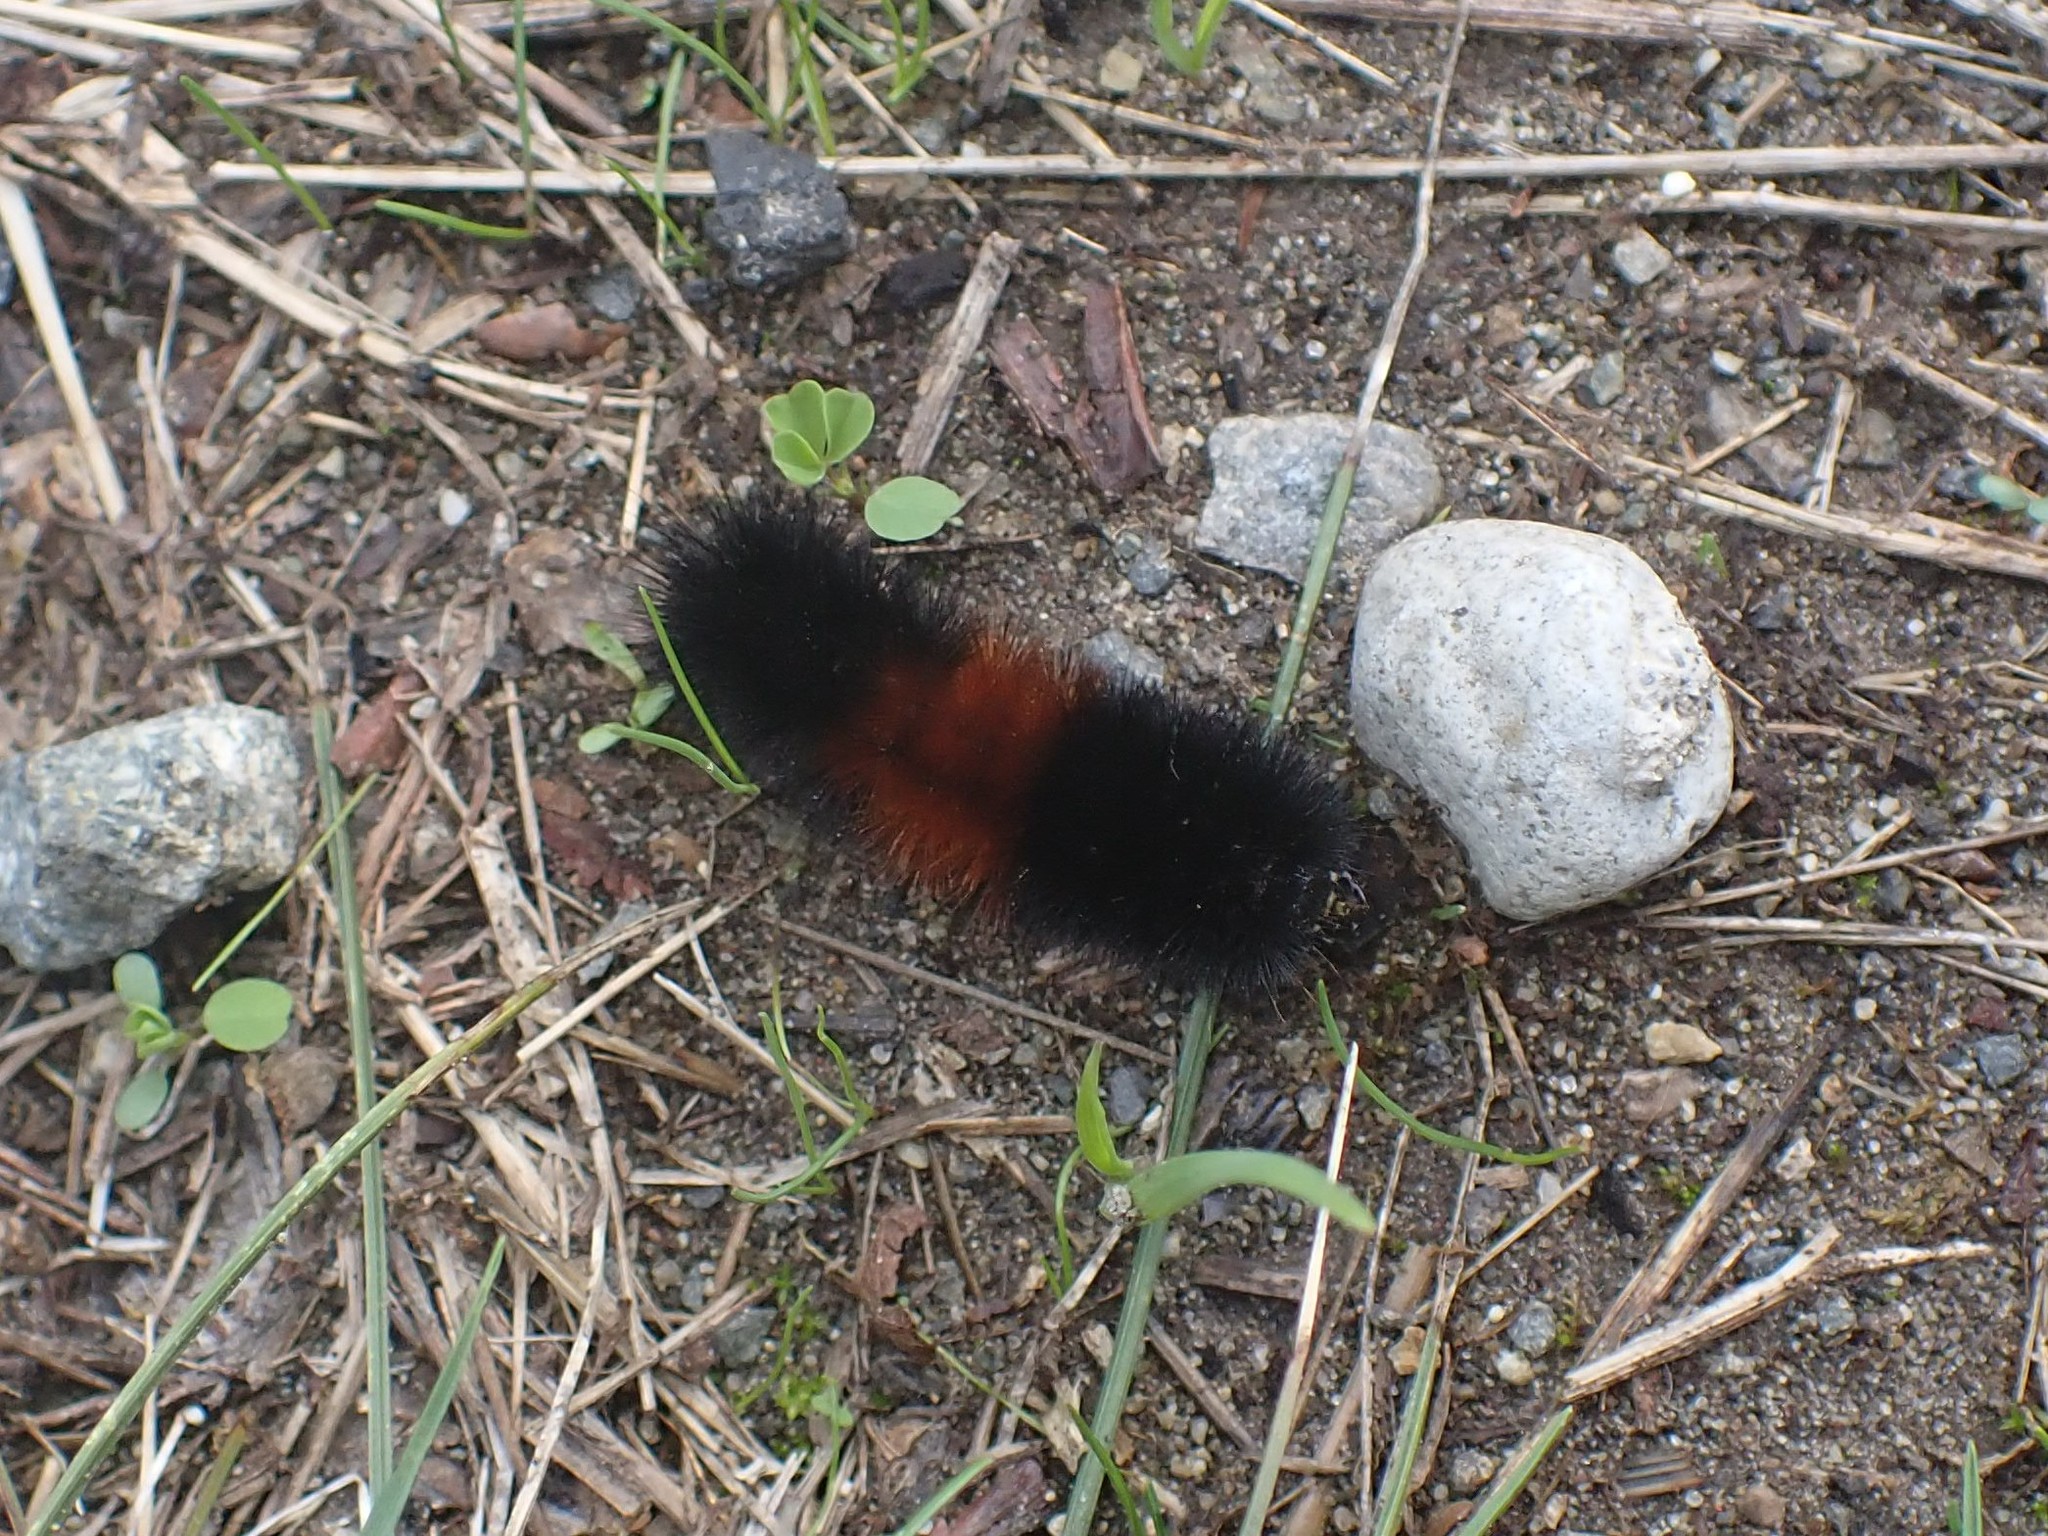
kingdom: Animalia
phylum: Arthropoda
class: Insecta
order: Lepidoptera
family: Erebidae
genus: Pyrrharctia
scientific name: Pyrrharctia isabella
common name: Isabella tiger moth
